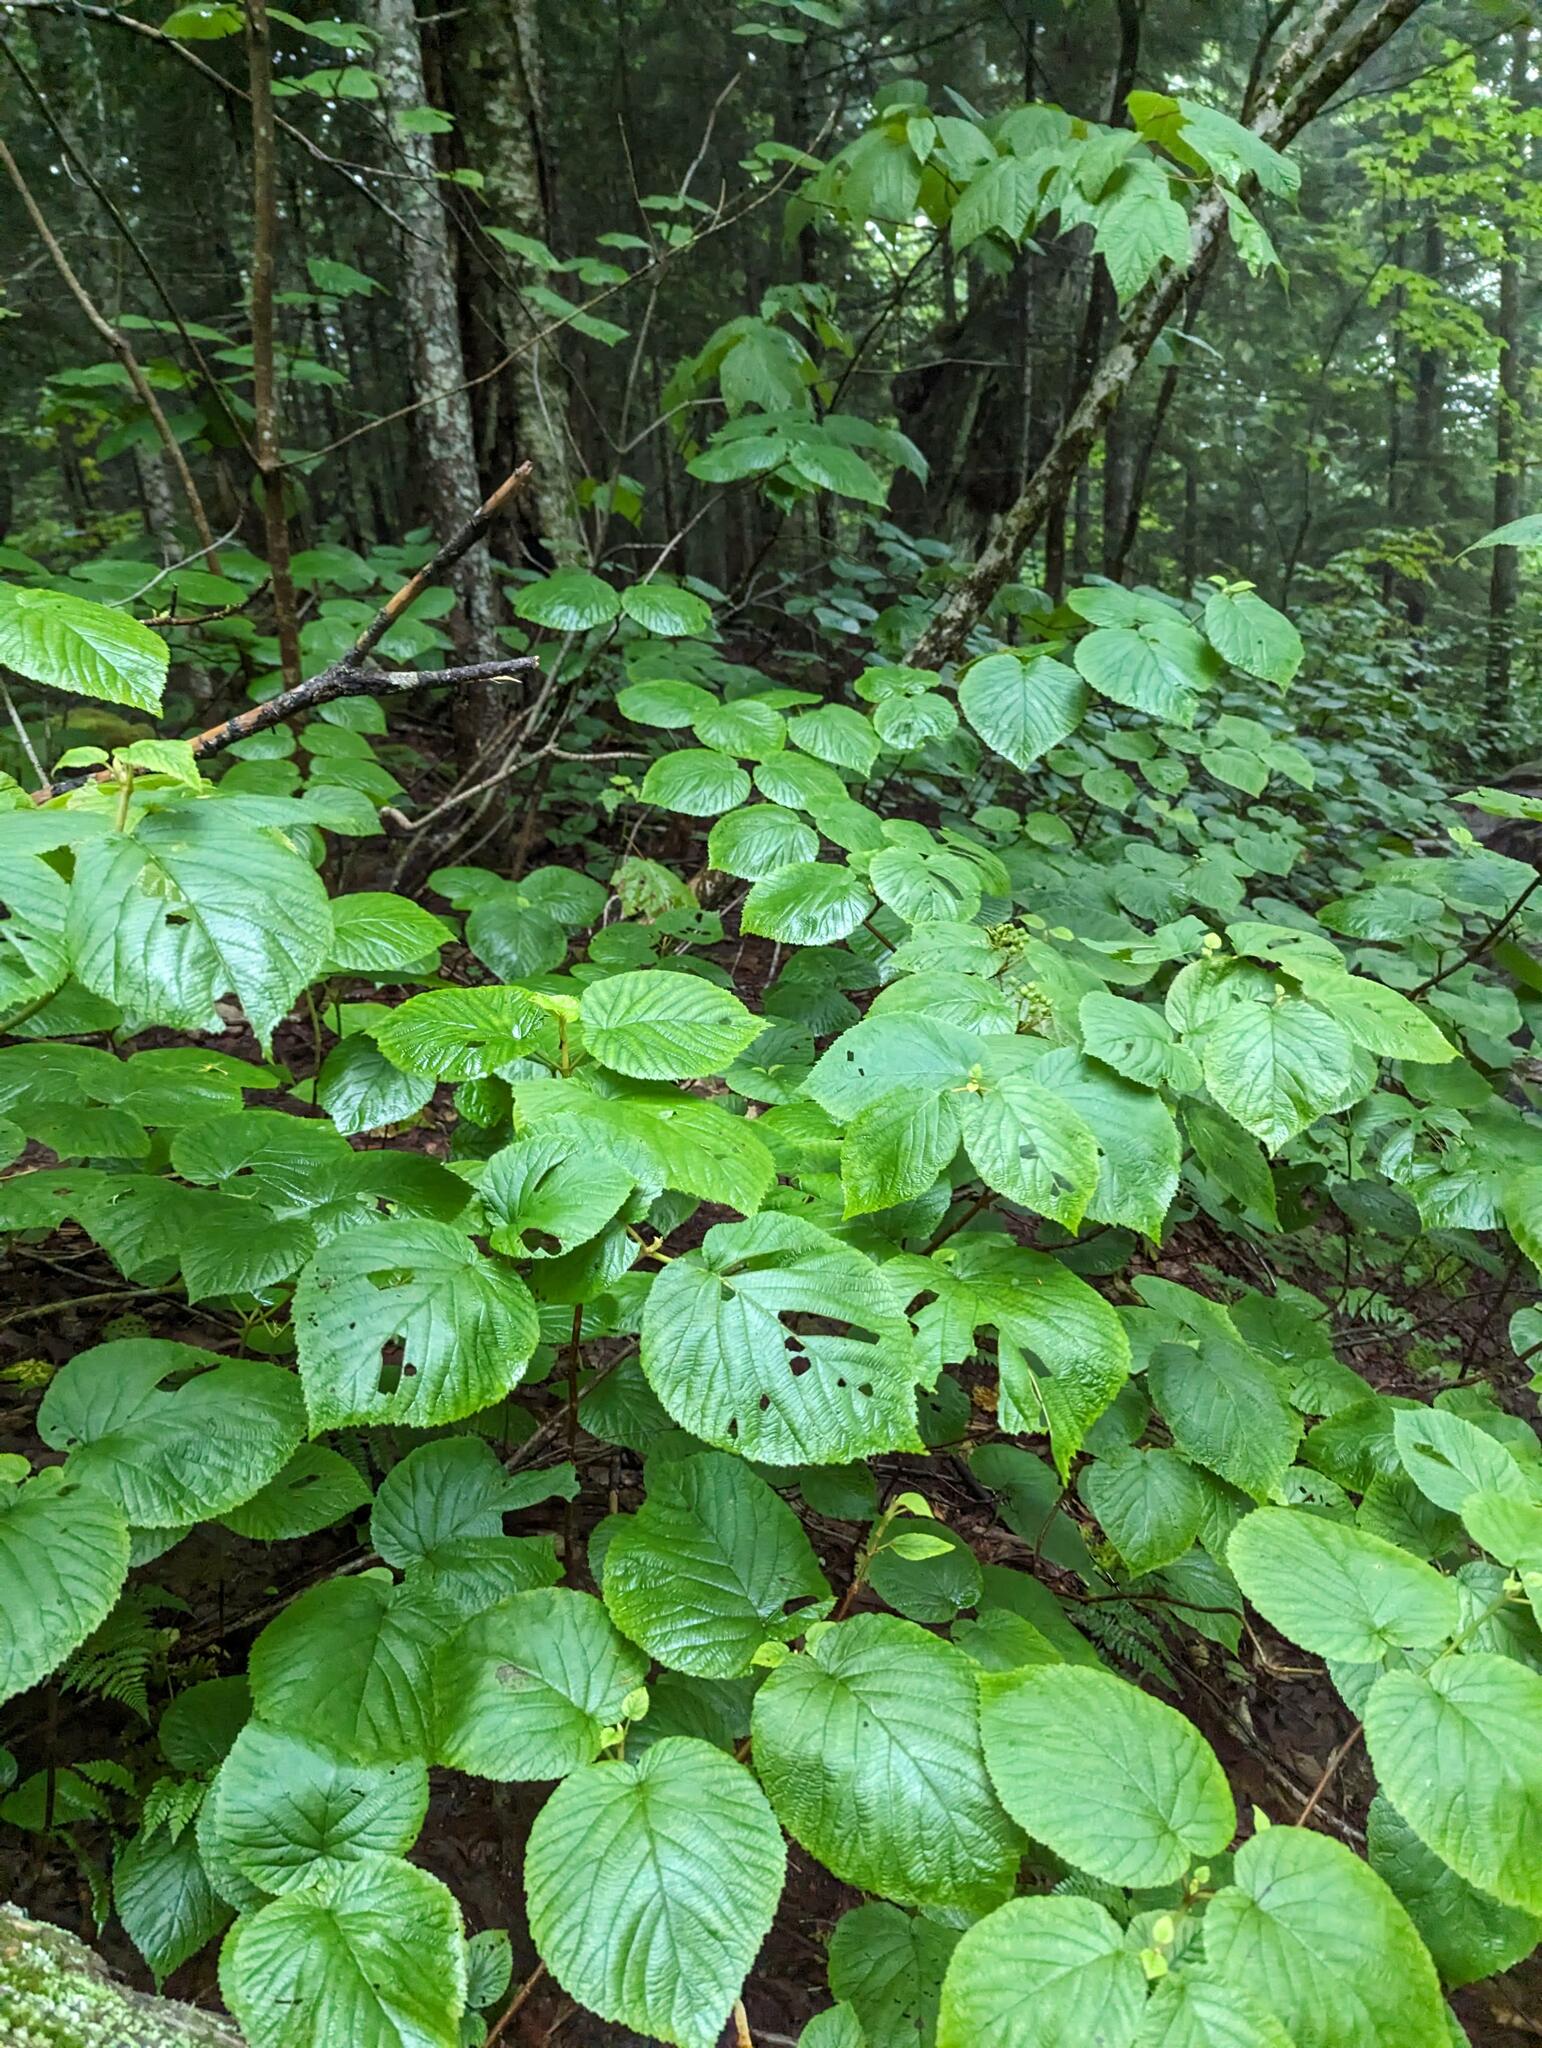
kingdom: Plantae
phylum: Tracheophyta
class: Magnoliopsida
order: Dipsacales
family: Viburnaceae
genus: Viburnum
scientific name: Viburnum lantanoides
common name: Hobblebush
